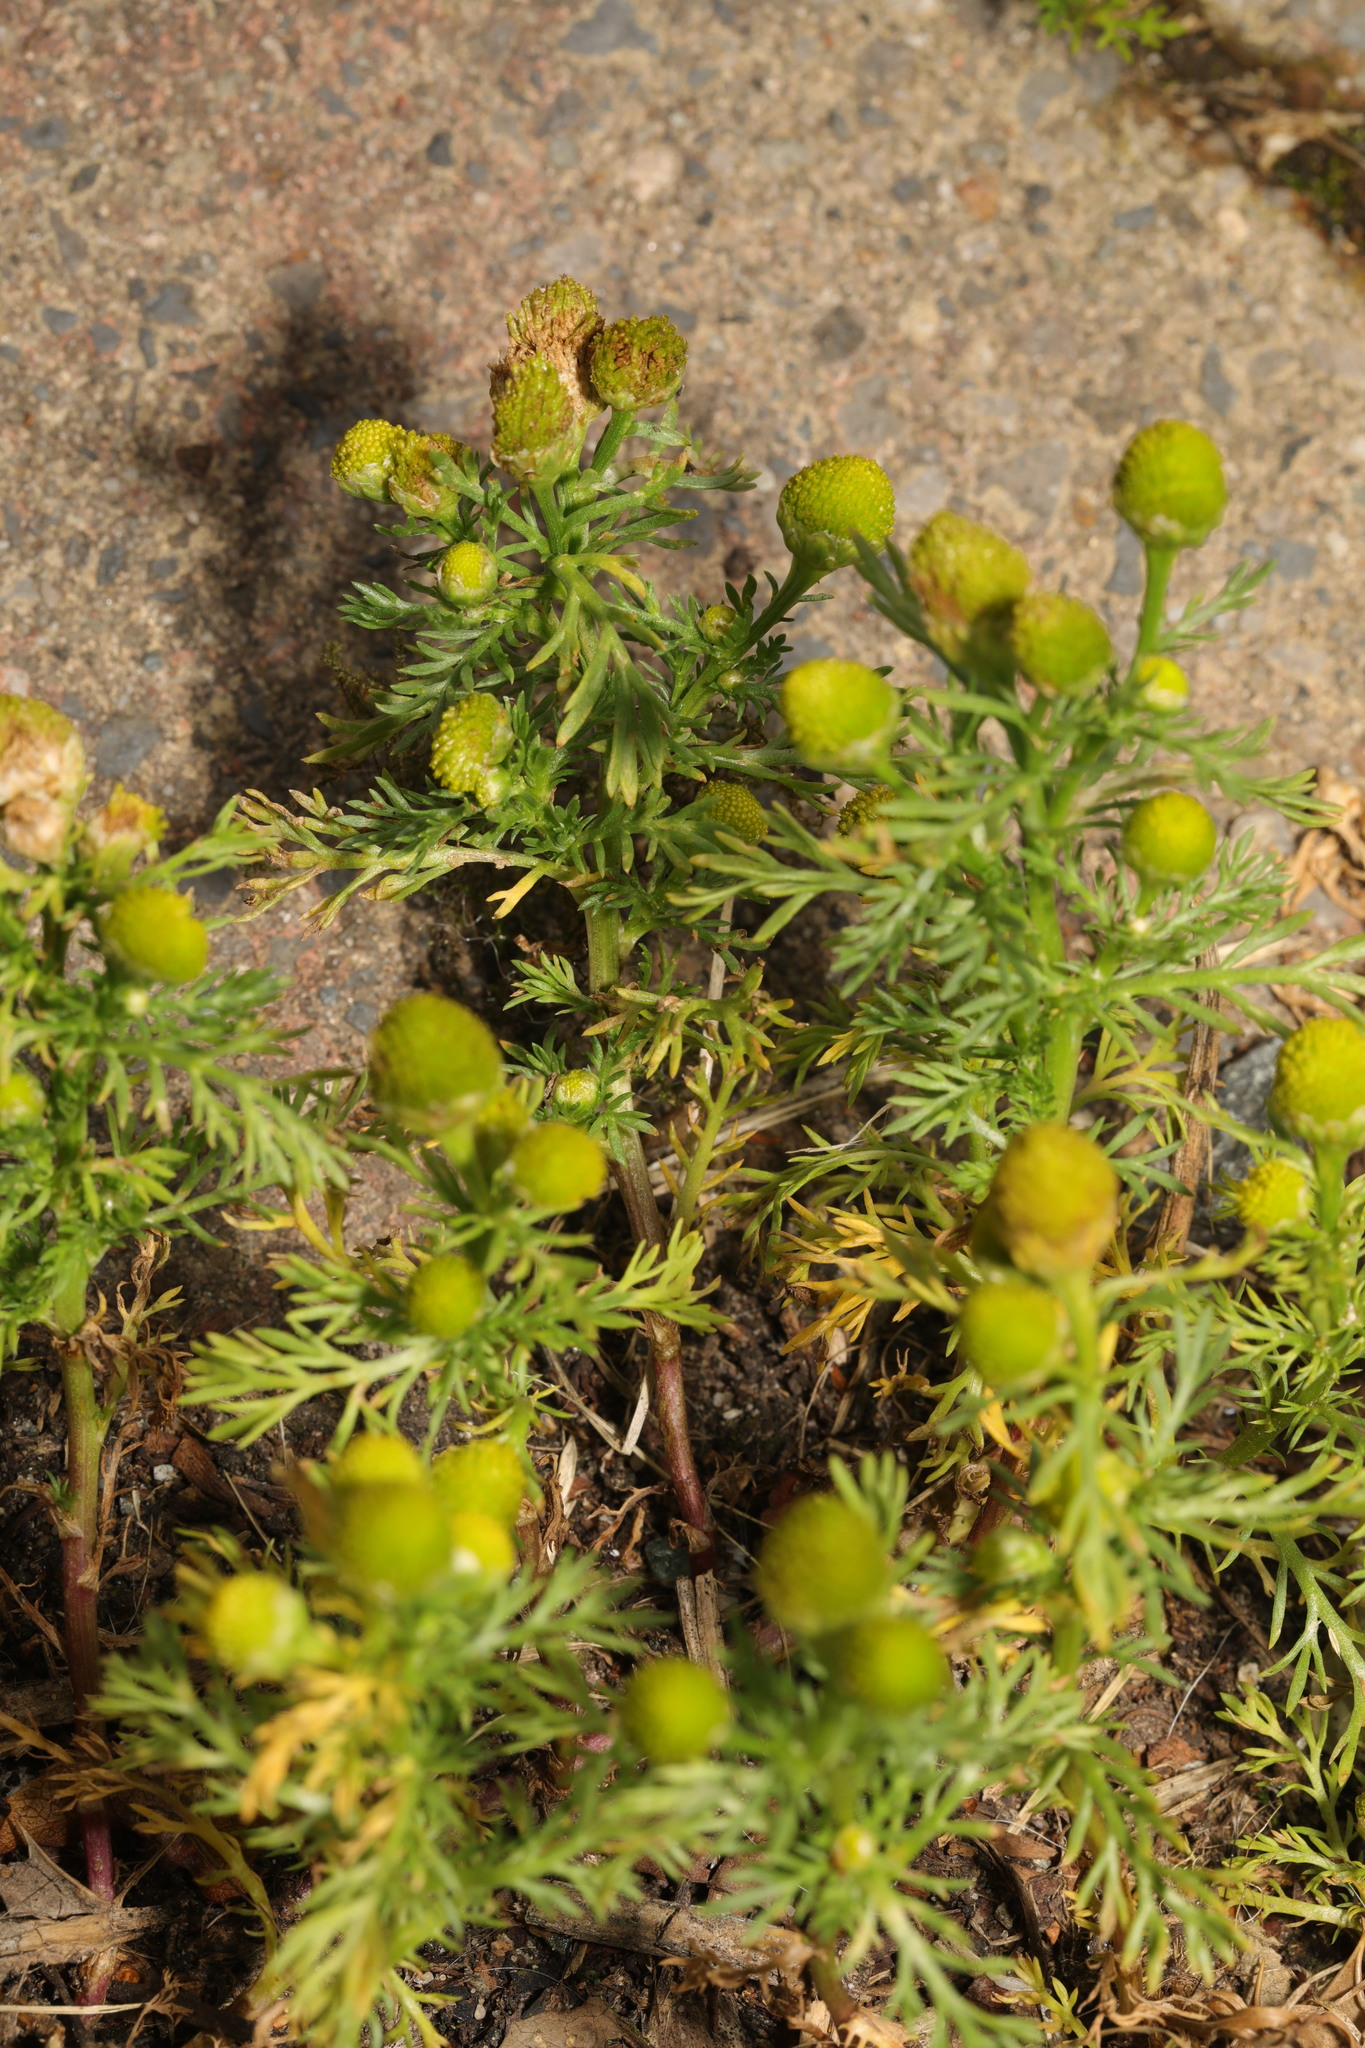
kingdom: Plantae
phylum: Tracheophyta
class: Magnoliopsida
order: Asterales
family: Asteraceae
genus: Matricaria
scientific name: Matricaria discoidea
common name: Disc mayweed
